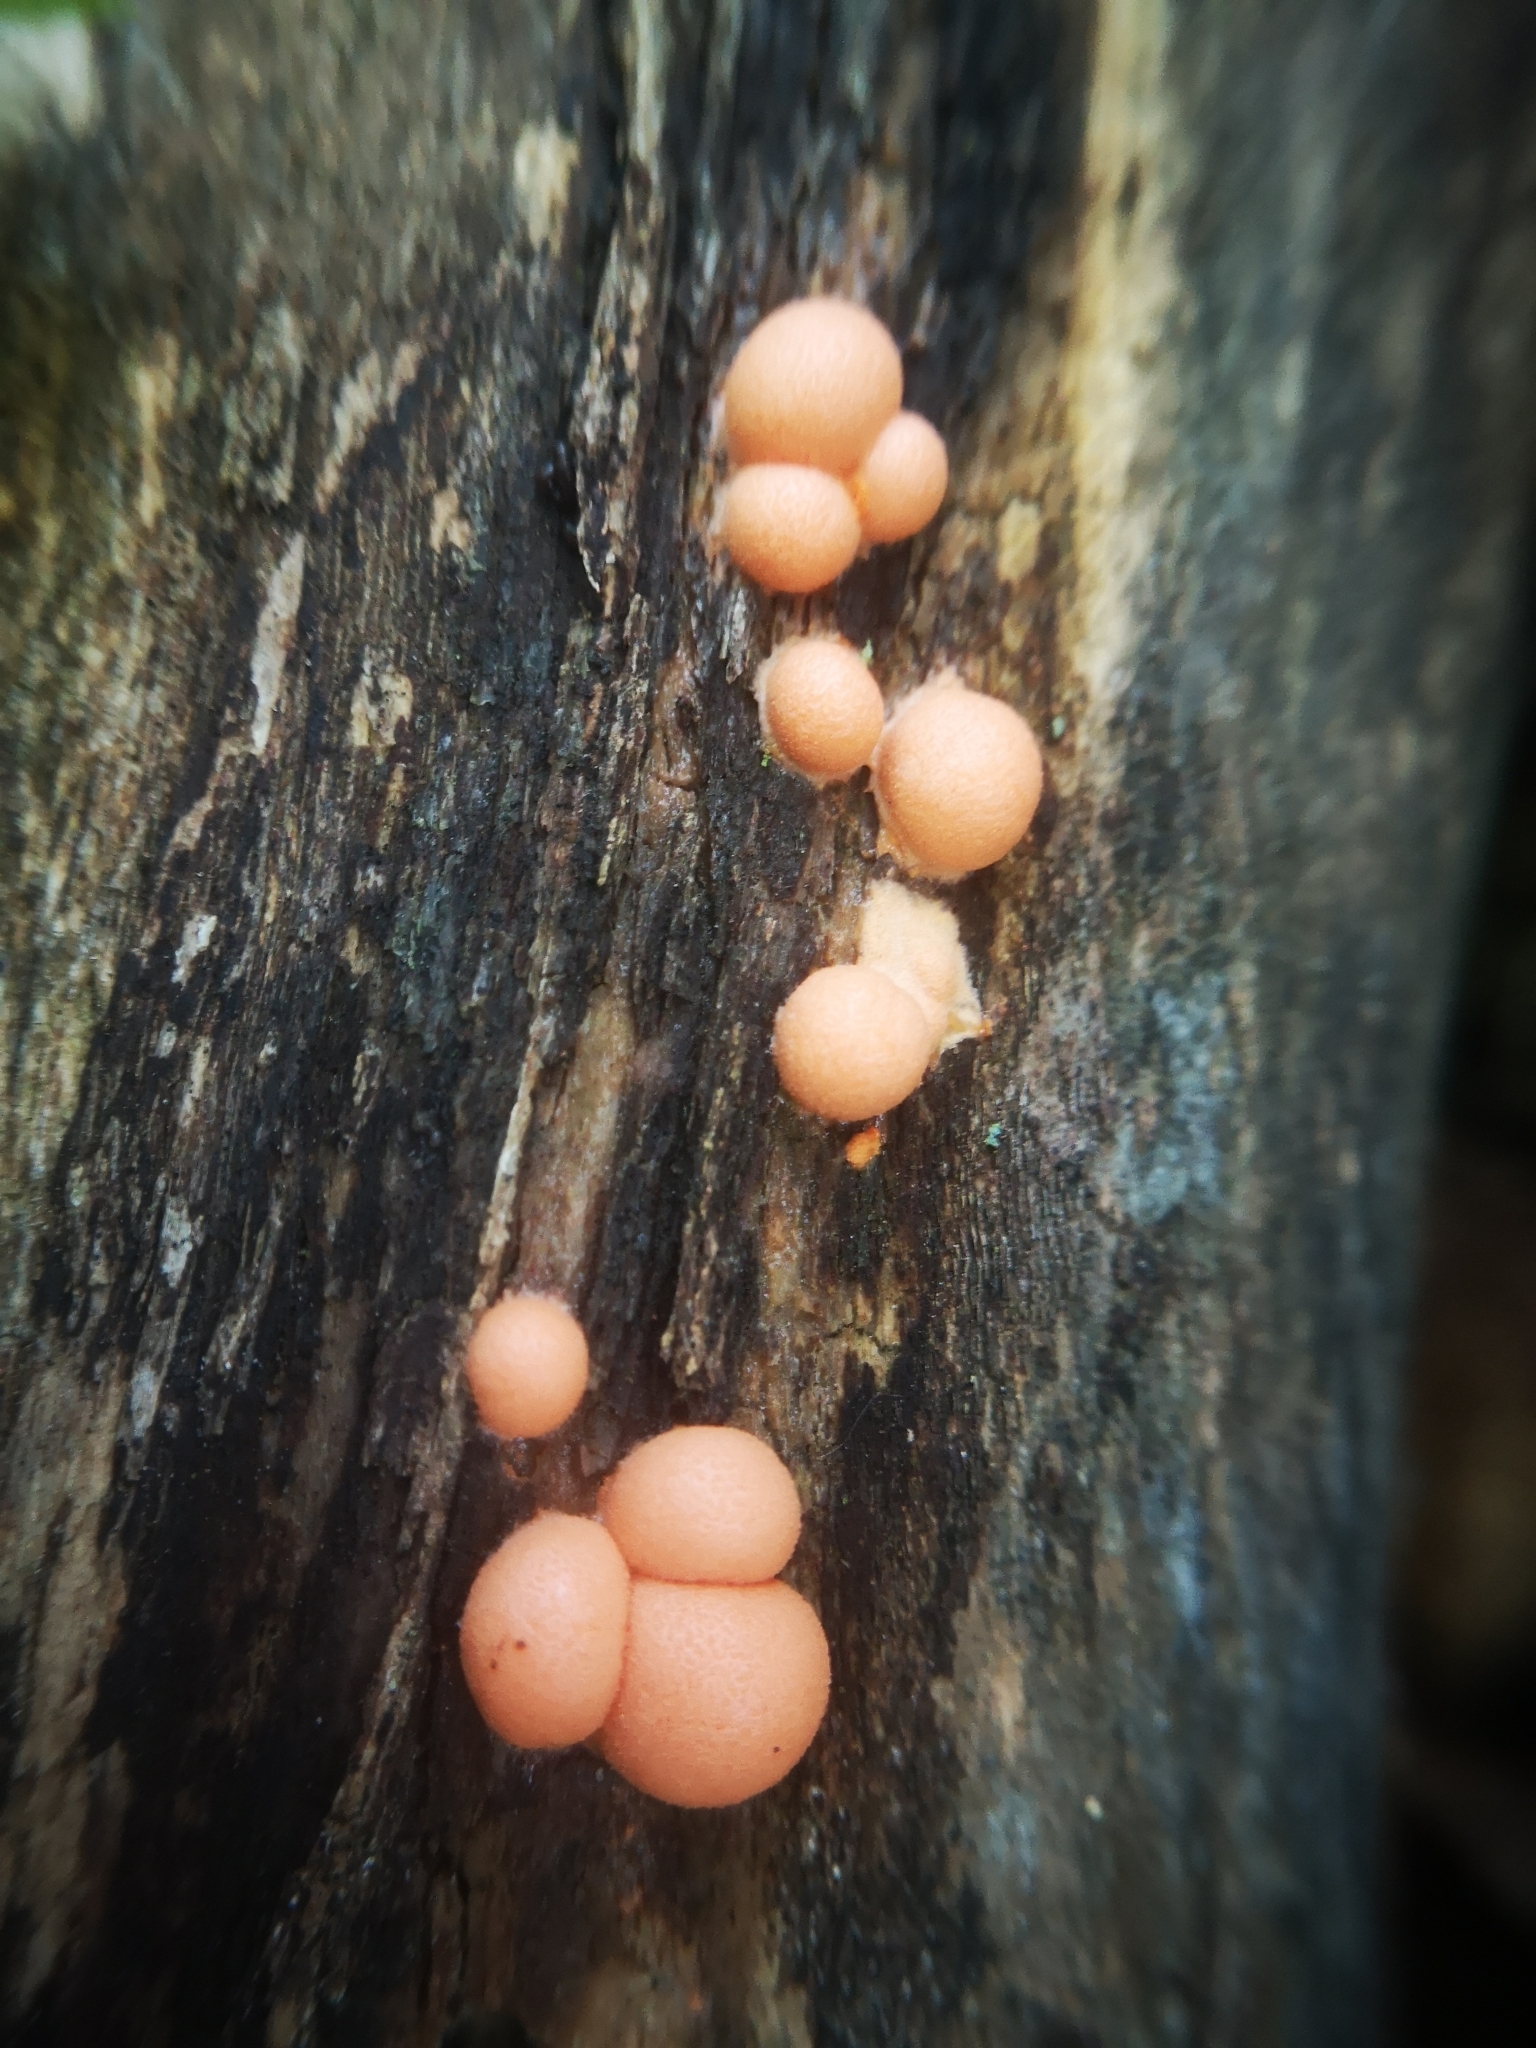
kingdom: Protozoa
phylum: Mycetozoa
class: Myxomycetes
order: Cribrariales
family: Tubiferaceae
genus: Lycogala
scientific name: Lycogala epidendrum
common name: Wolf's milk
